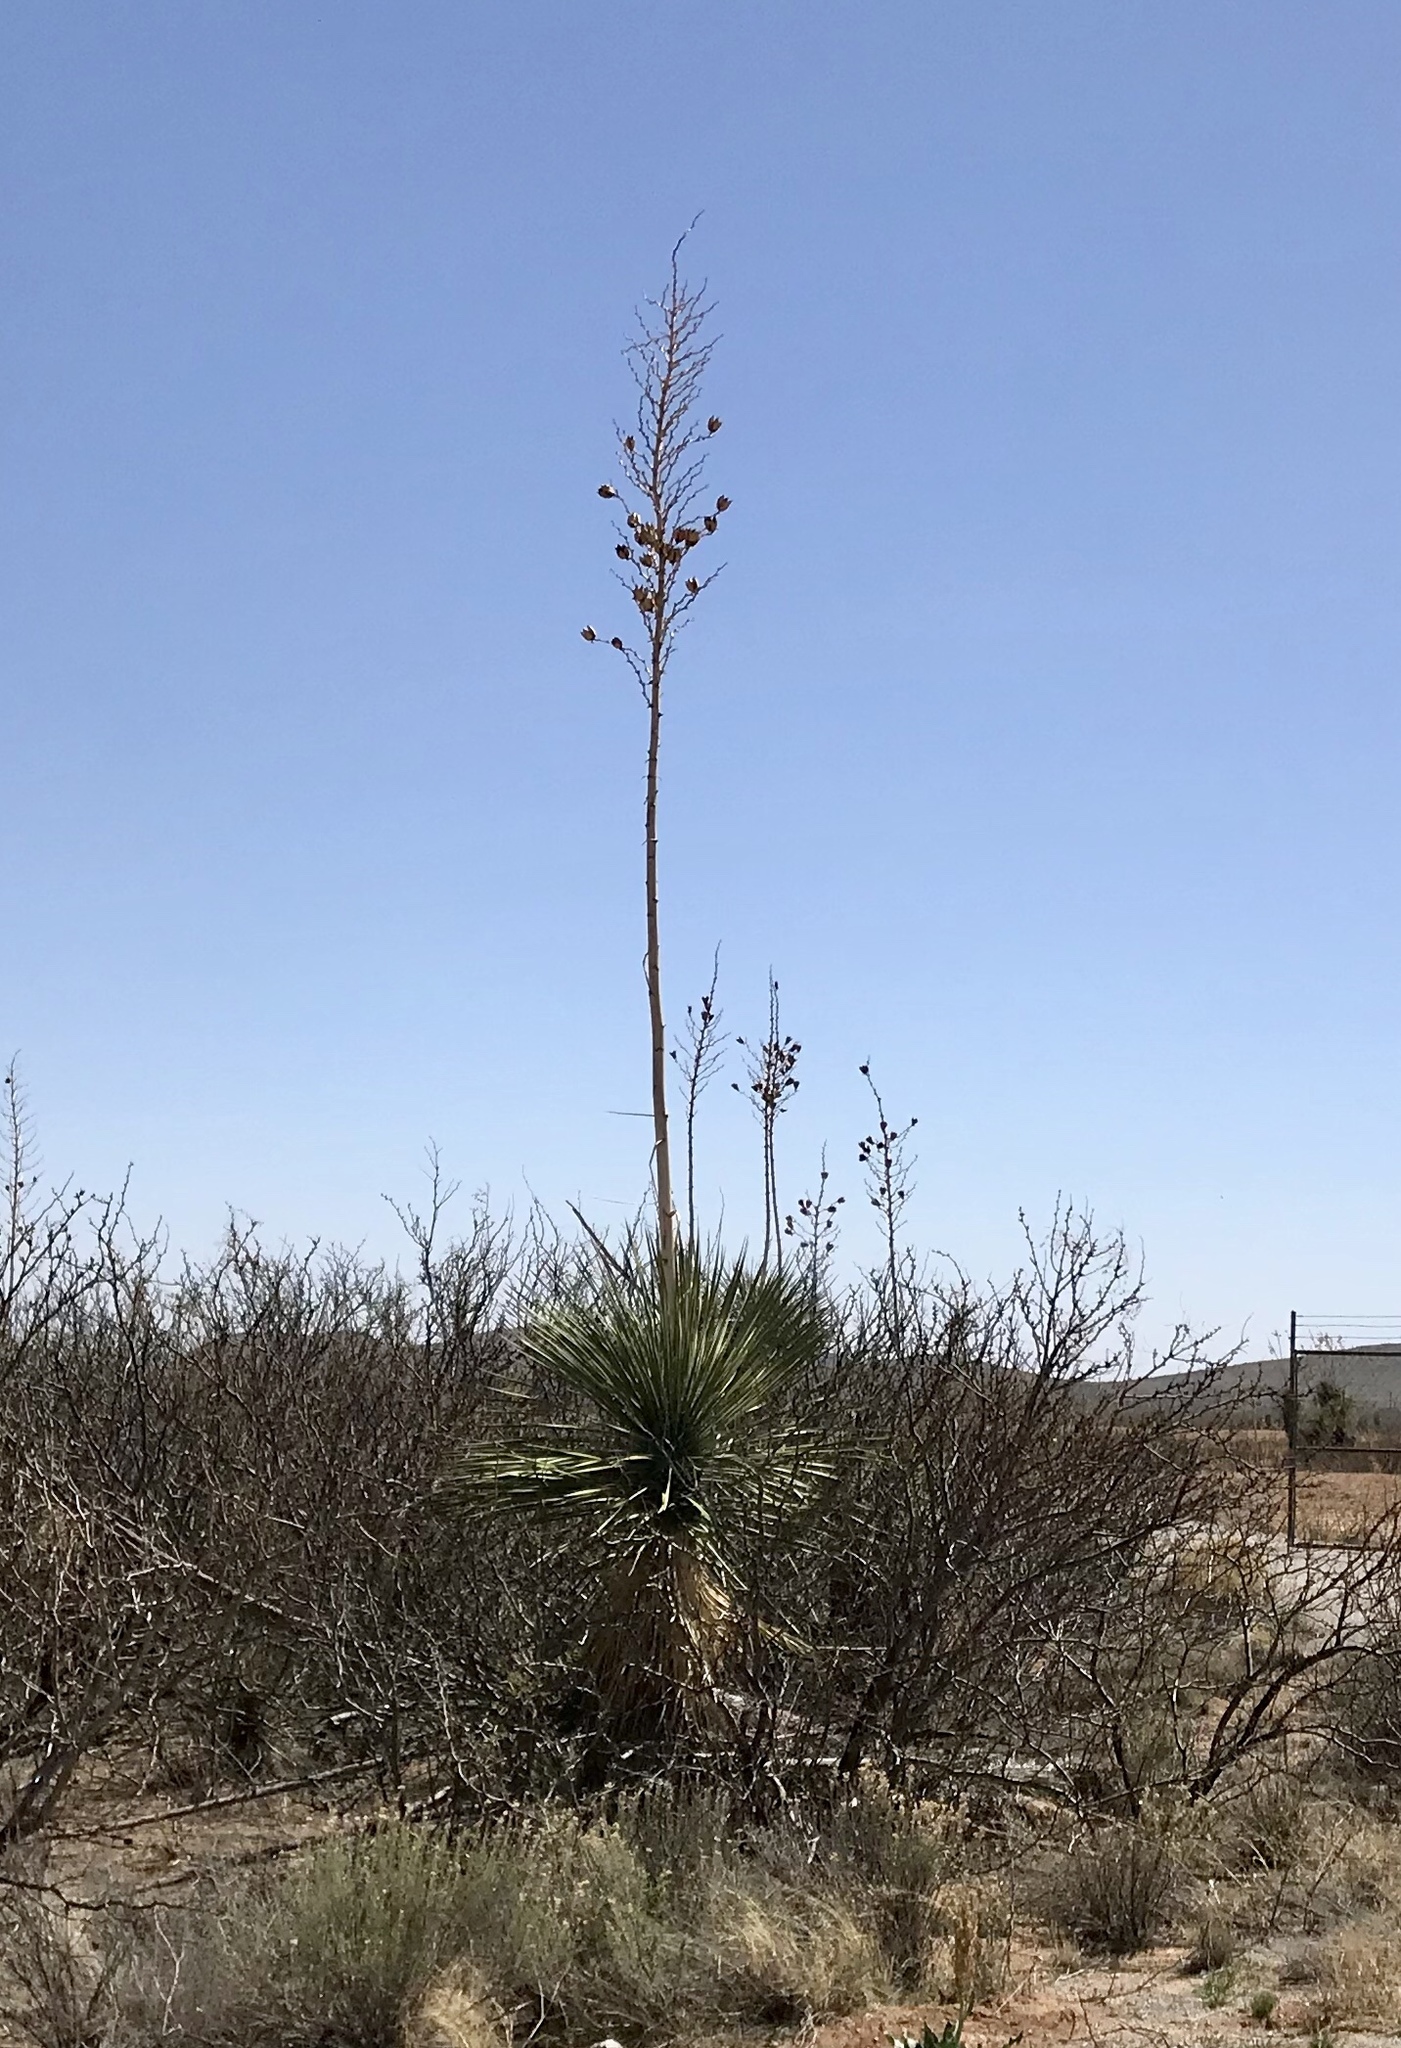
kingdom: Plantae
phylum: Tracheophyta
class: Liliopsida
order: Asparagales
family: Asparagaceae
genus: Yucca
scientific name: Yucca elata
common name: Palmella
